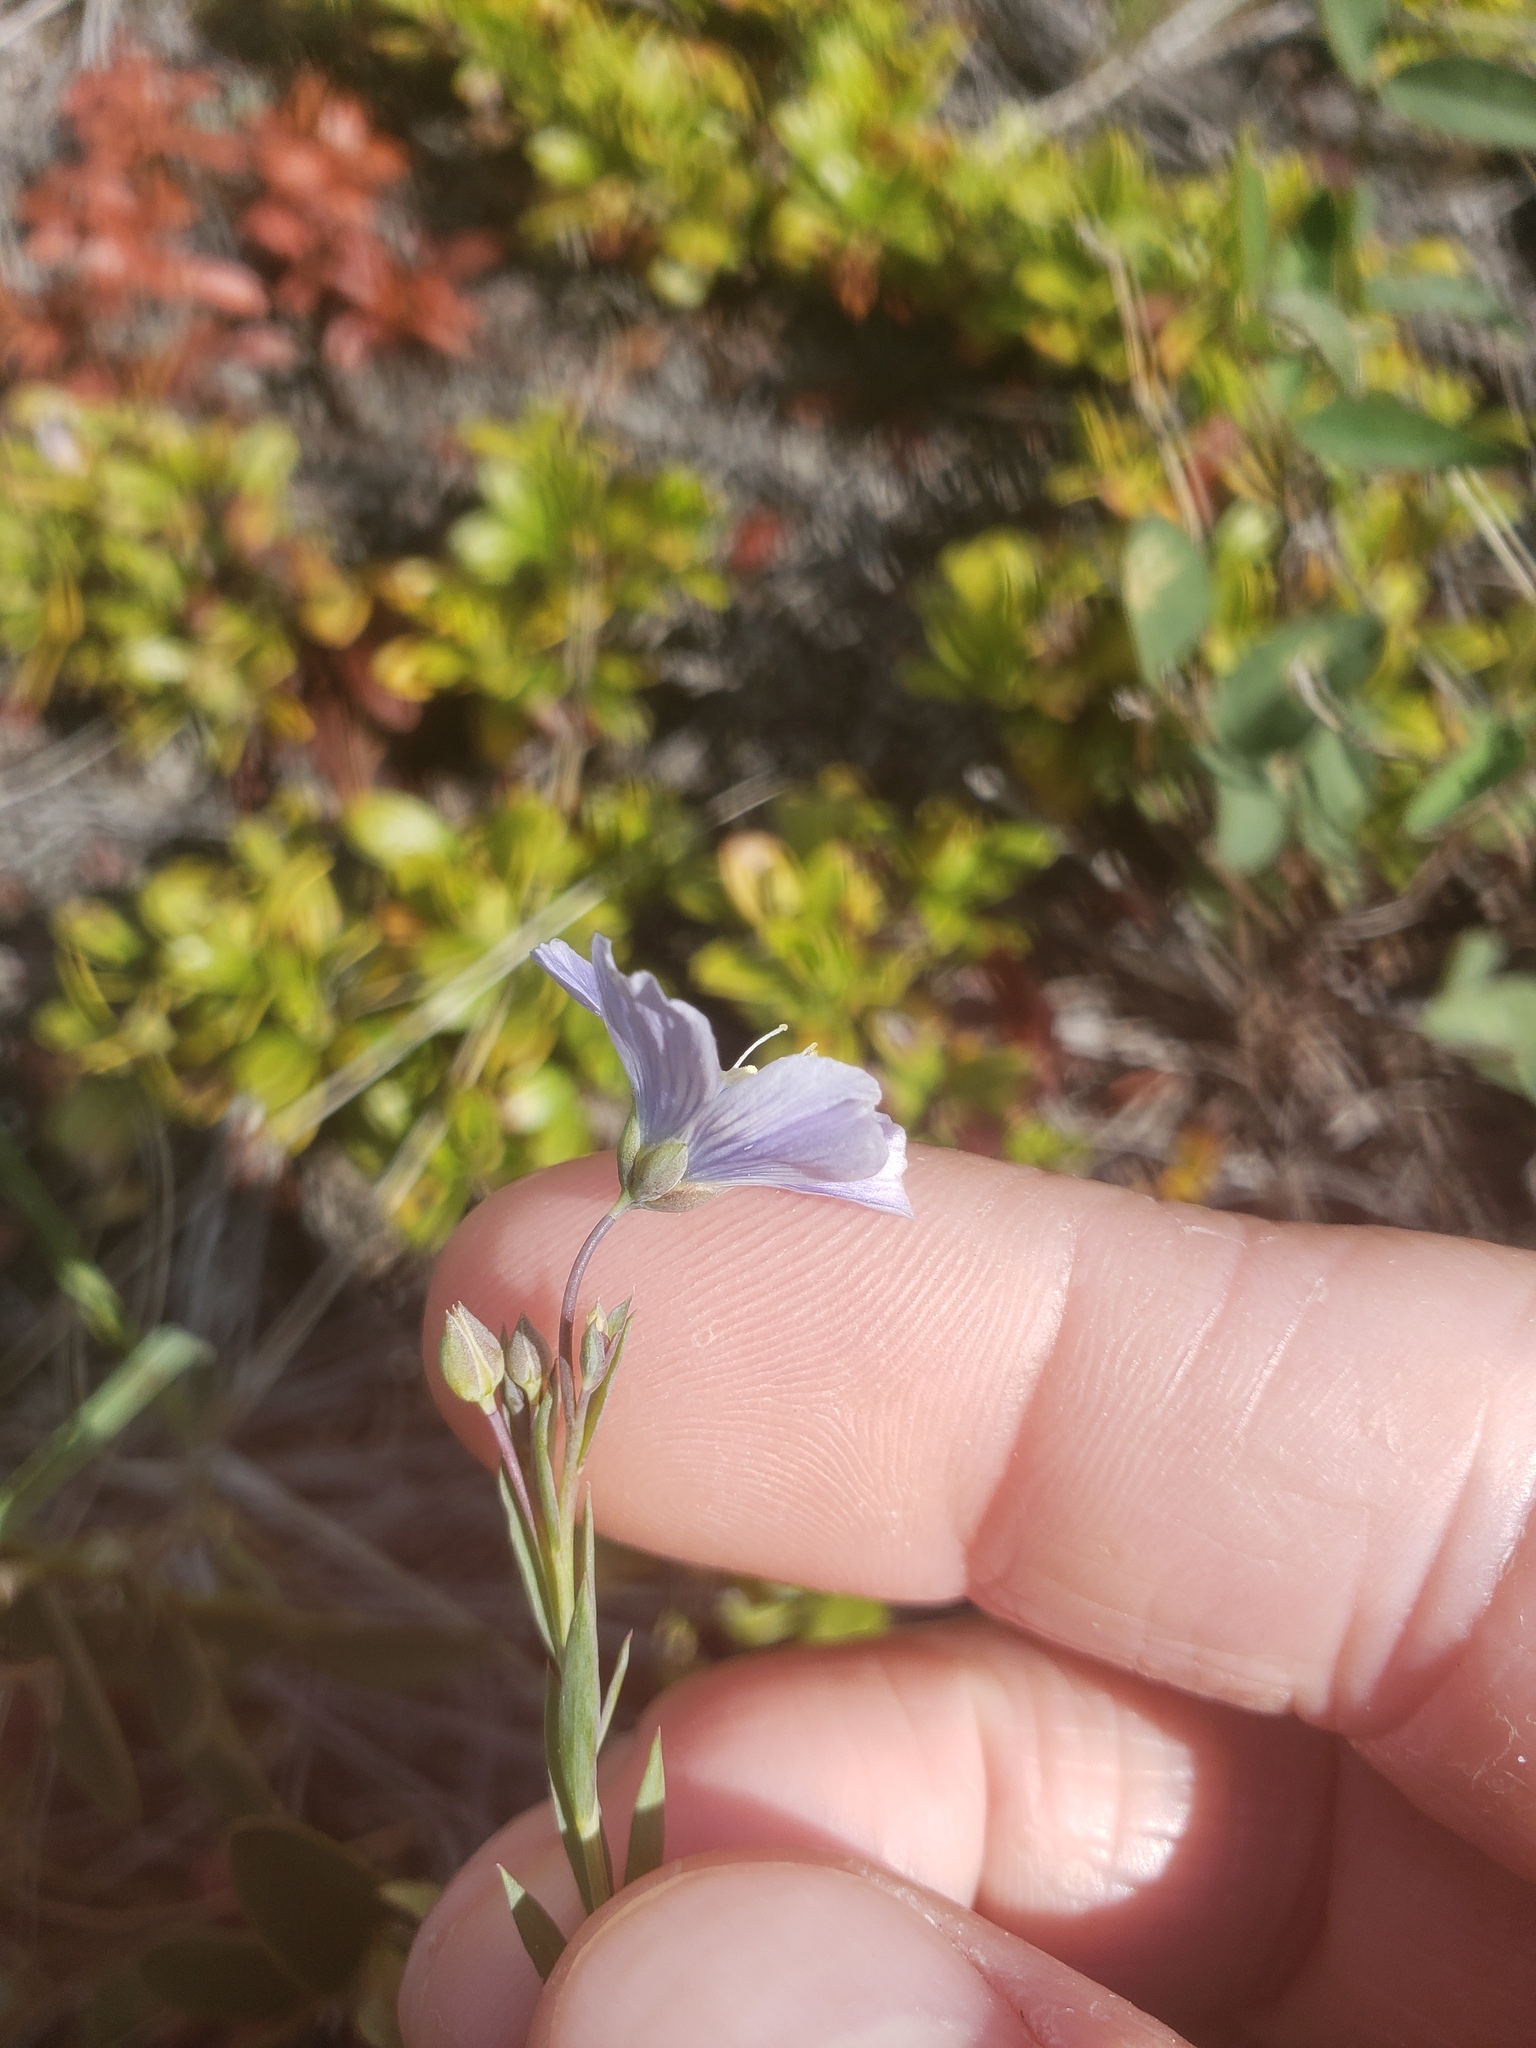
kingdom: Plantae
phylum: Tracheophyta
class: Magnoliopsida
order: Malpighiales
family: Linaceae
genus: Linum
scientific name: Linum lewisii
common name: Prairie flax
